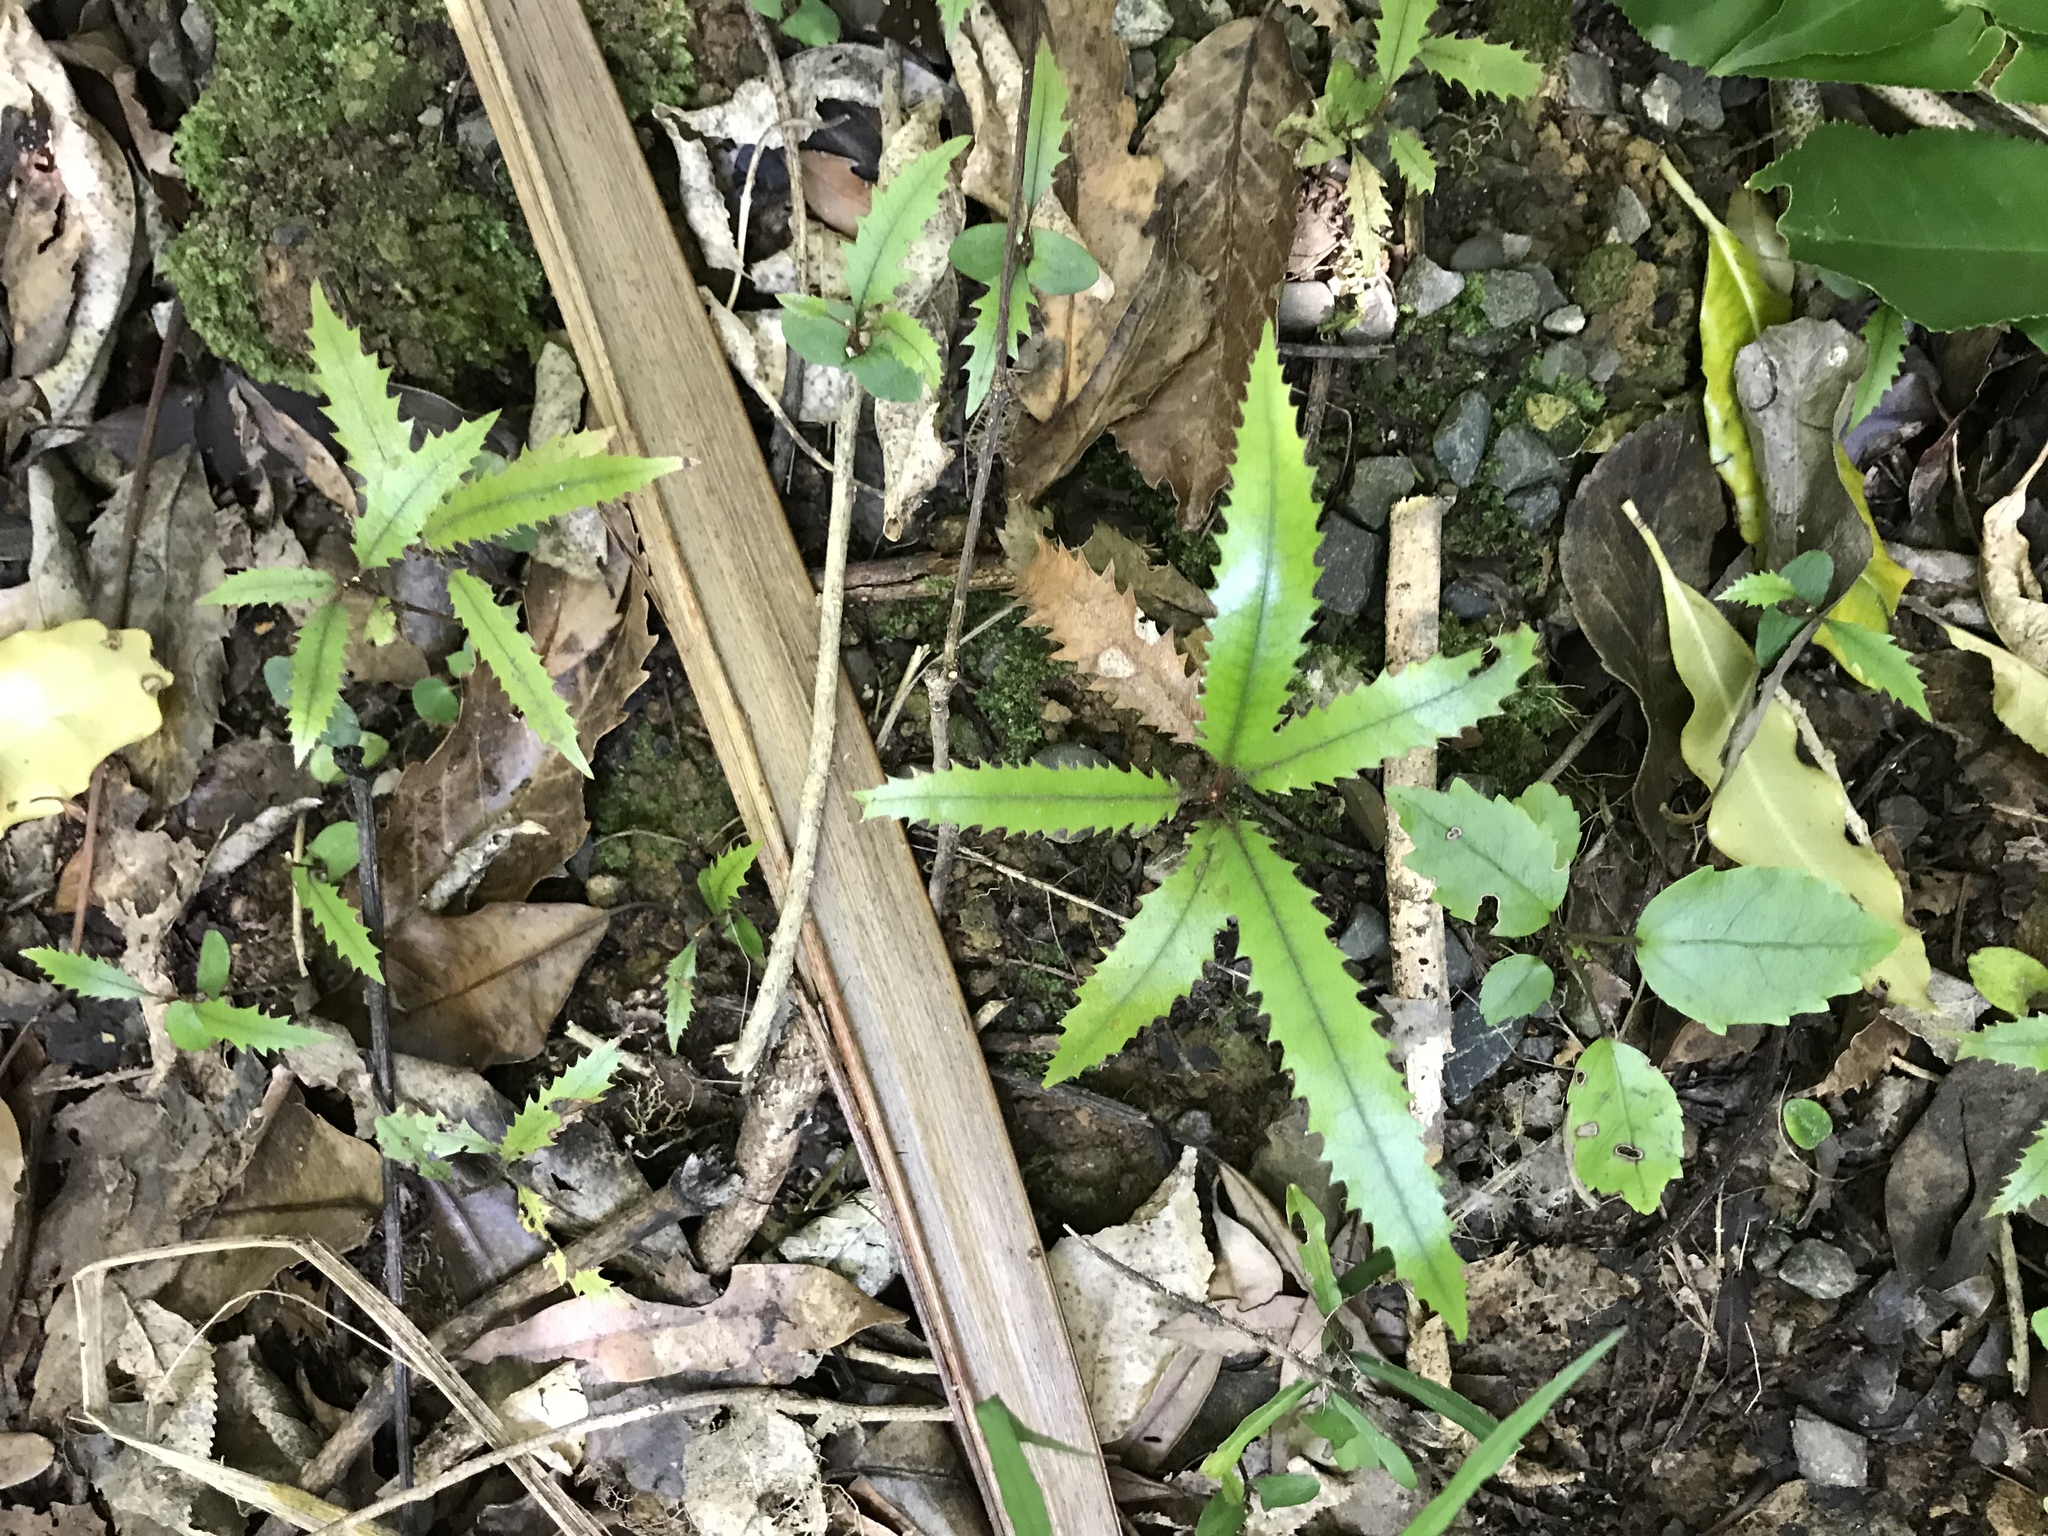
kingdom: Plantae
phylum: Tracheophyta
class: Magnoliopsida
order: Proteales
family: Proteaceae
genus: Knightia
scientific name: Knightia excelsa
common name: New zealand-honeysuckle
